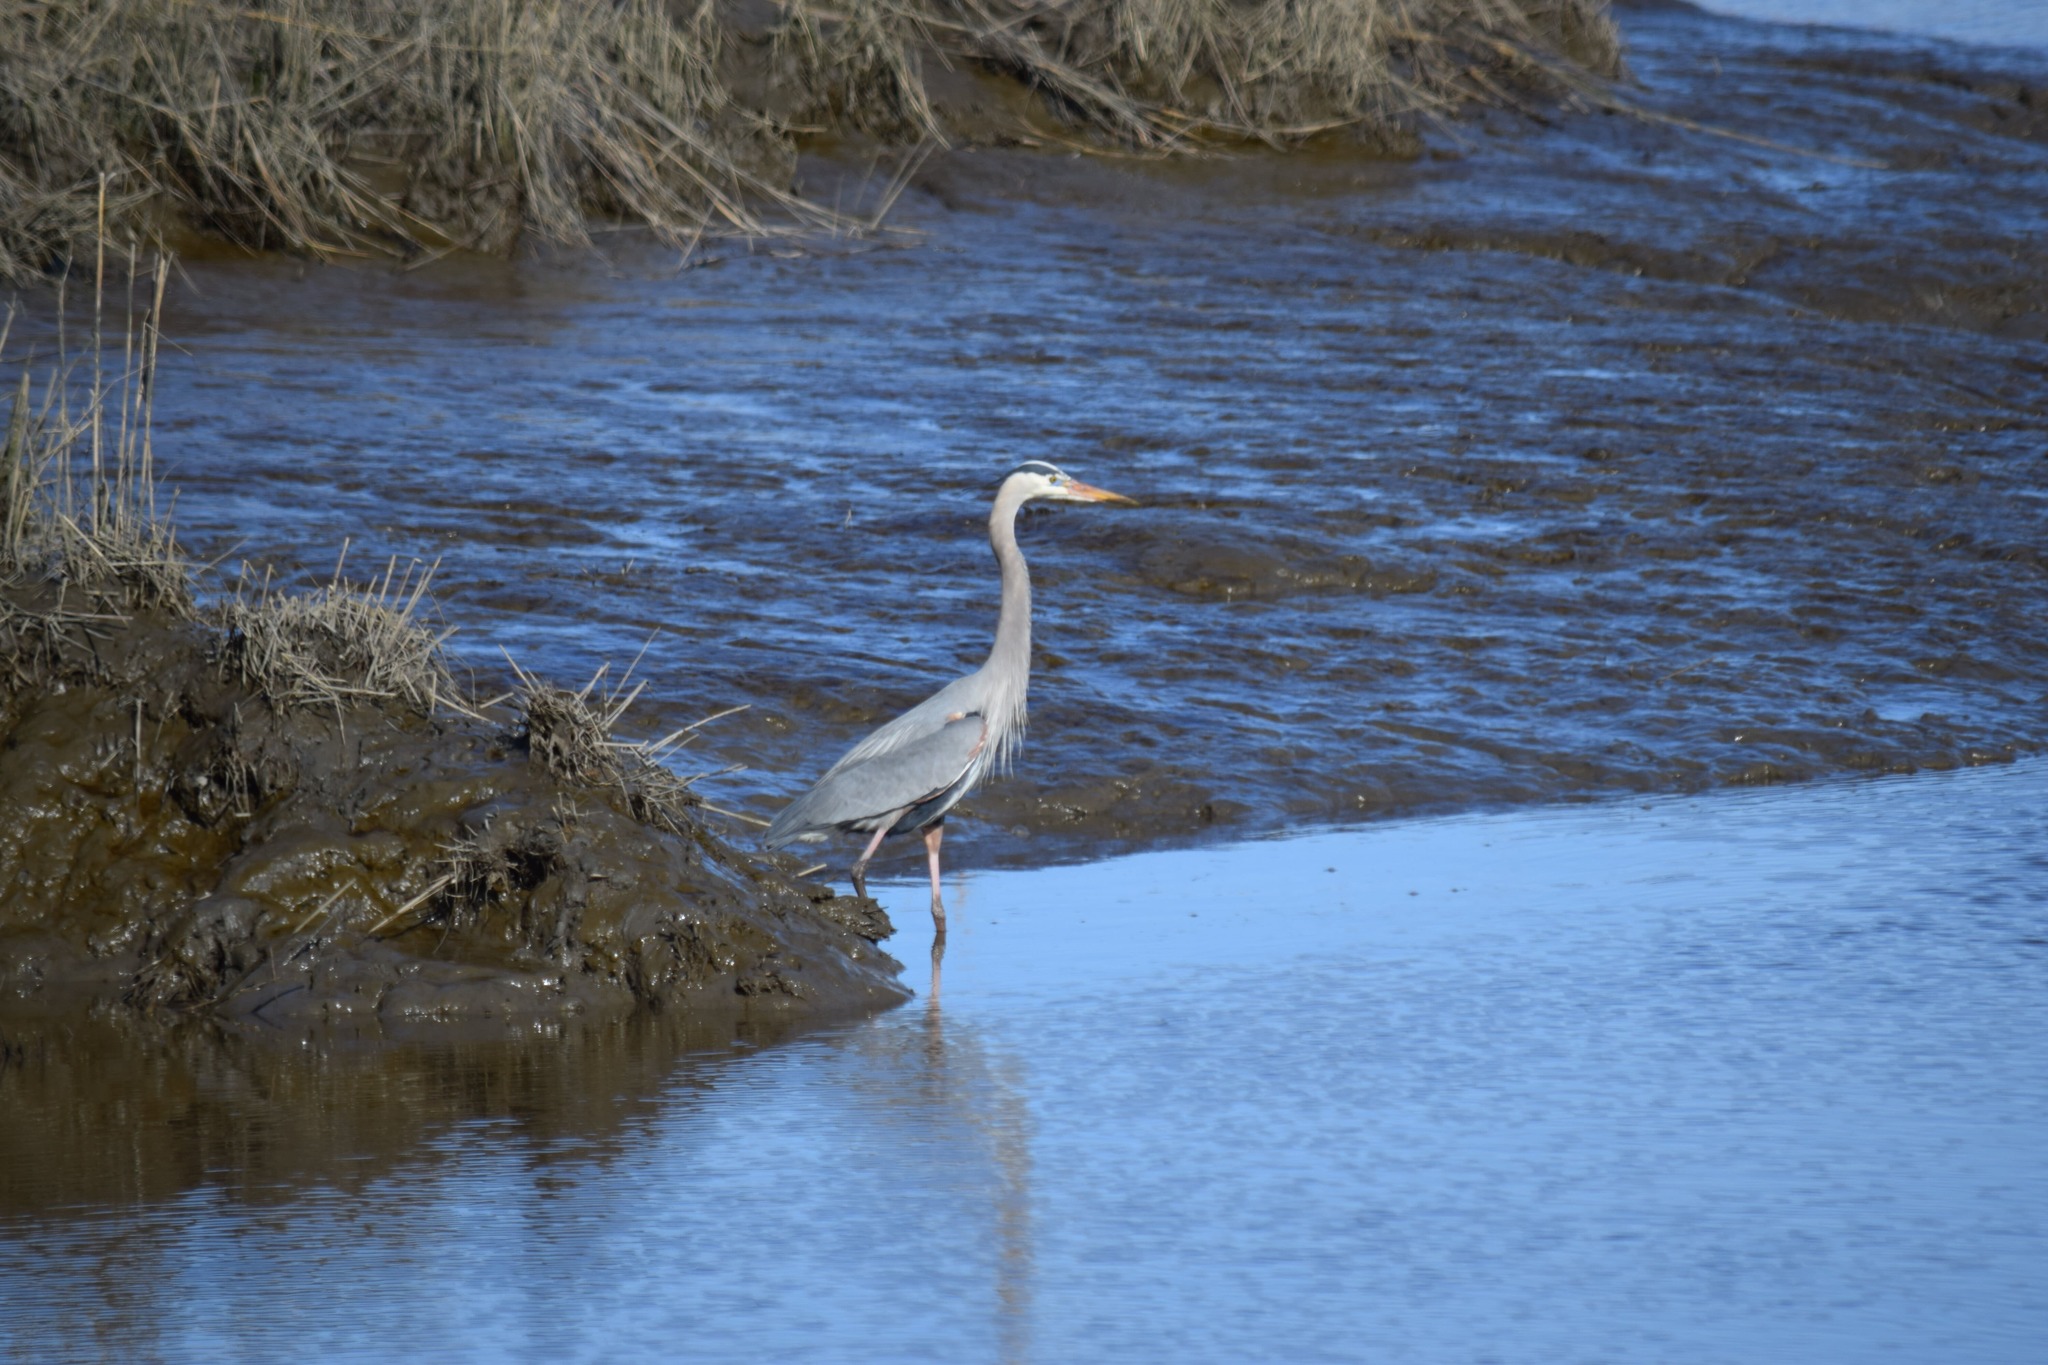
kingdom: Animalia
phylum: Chordata
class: Aves
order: Pelecaniformes
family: Ardeidae
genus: Ardea
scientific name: Ardea herodias
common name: Great blue heron
